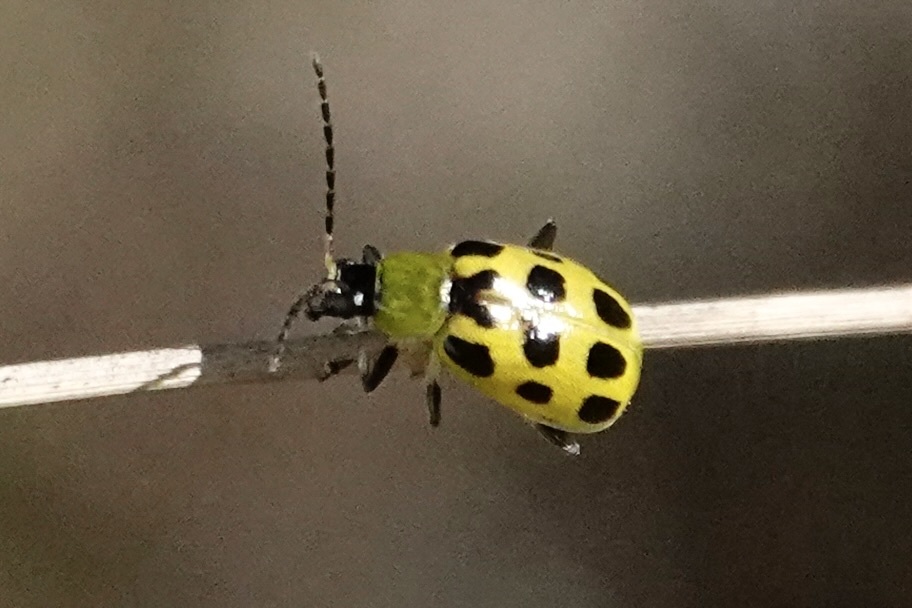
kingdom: Animalia
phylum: Arthropoda
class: Insecta
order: Coleoptera
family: Chrysomelidae
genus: Diabrotica
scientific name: Diabrotica undecimpunctata
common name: Spotted cucumber beetle
